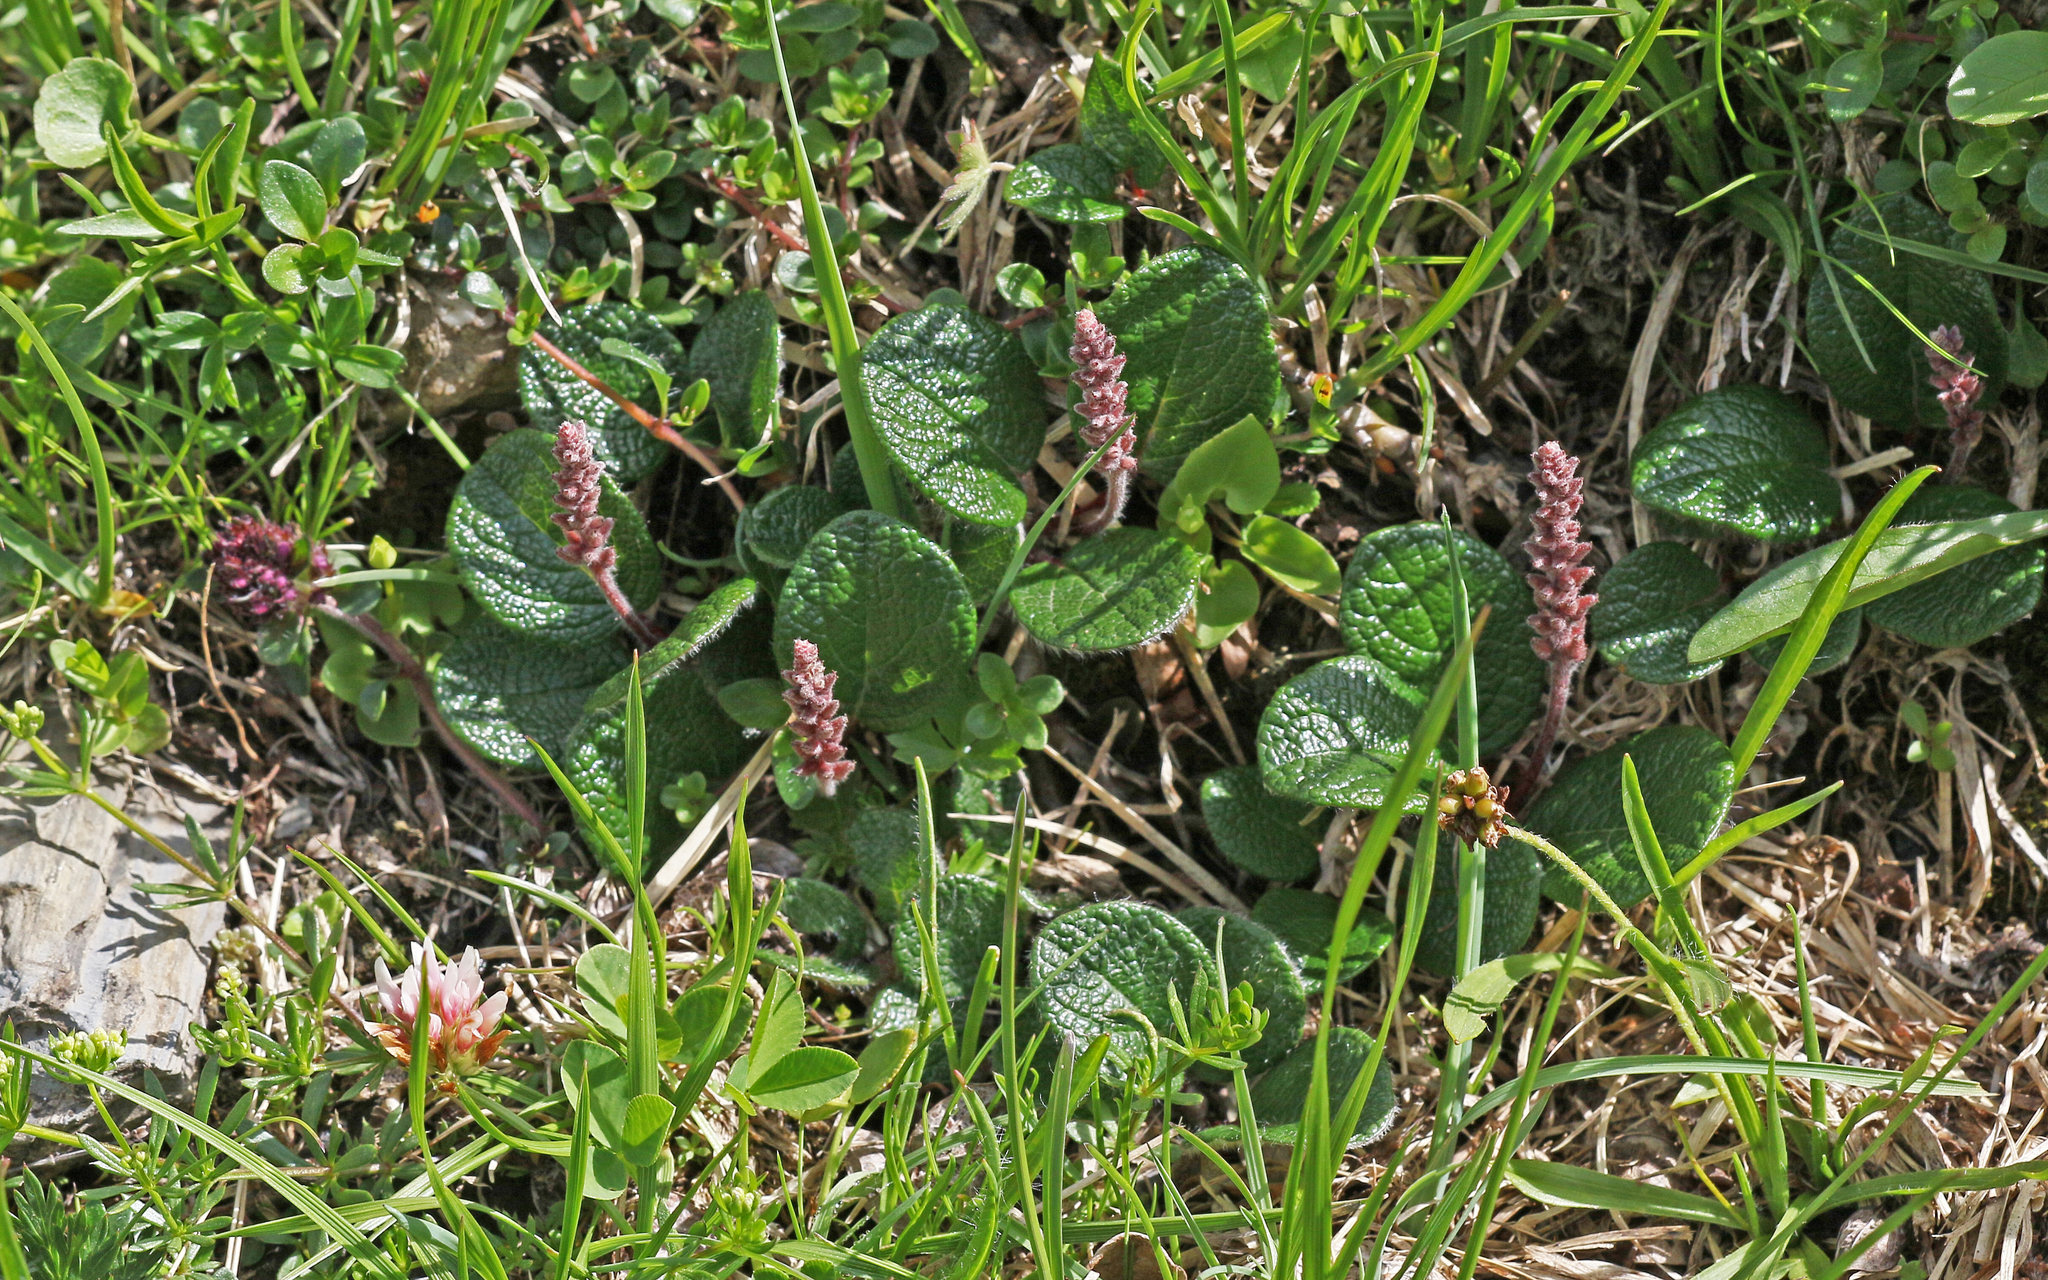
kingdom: Plantae
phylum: Tracheophyta
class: Magnoliopsida
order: Malpighiales
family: Salicaceae
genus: Salix
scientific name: Salix reticulata
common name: Net-leaved willow
